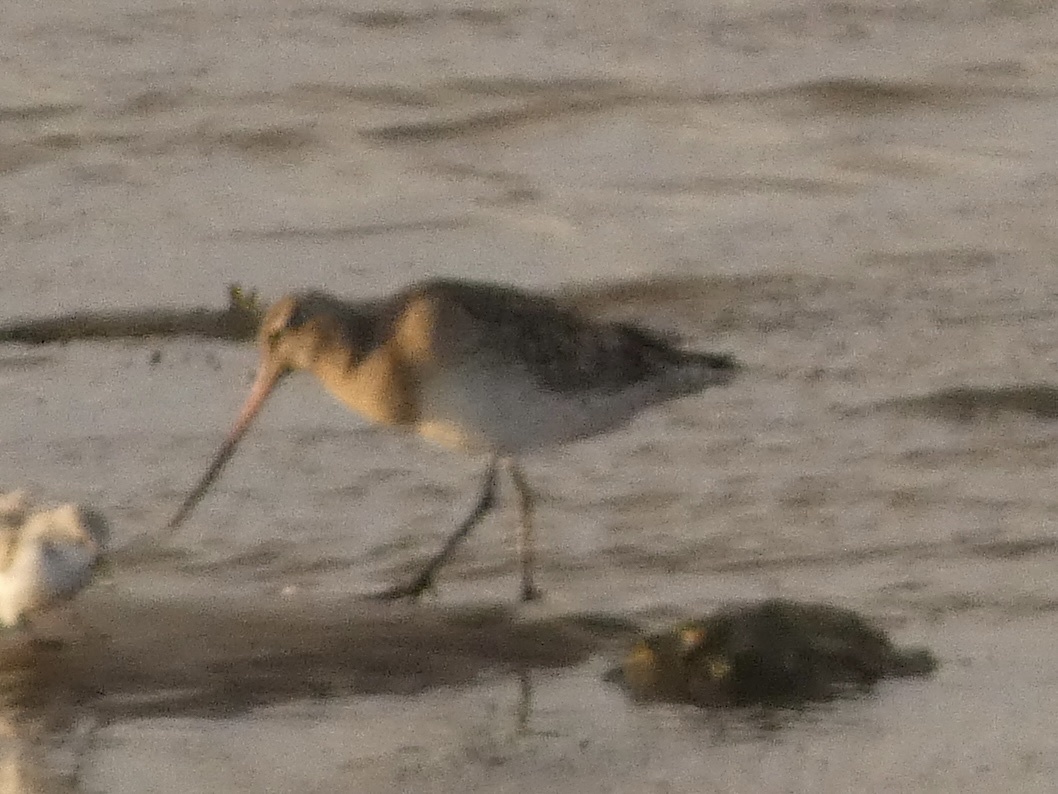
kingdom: Animalia
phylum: Chordata
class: Aves
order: Charadriiformes
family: Scolopacidae
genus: Limosa
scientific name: Limosa lapponica
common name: Bar-tailed godwit
